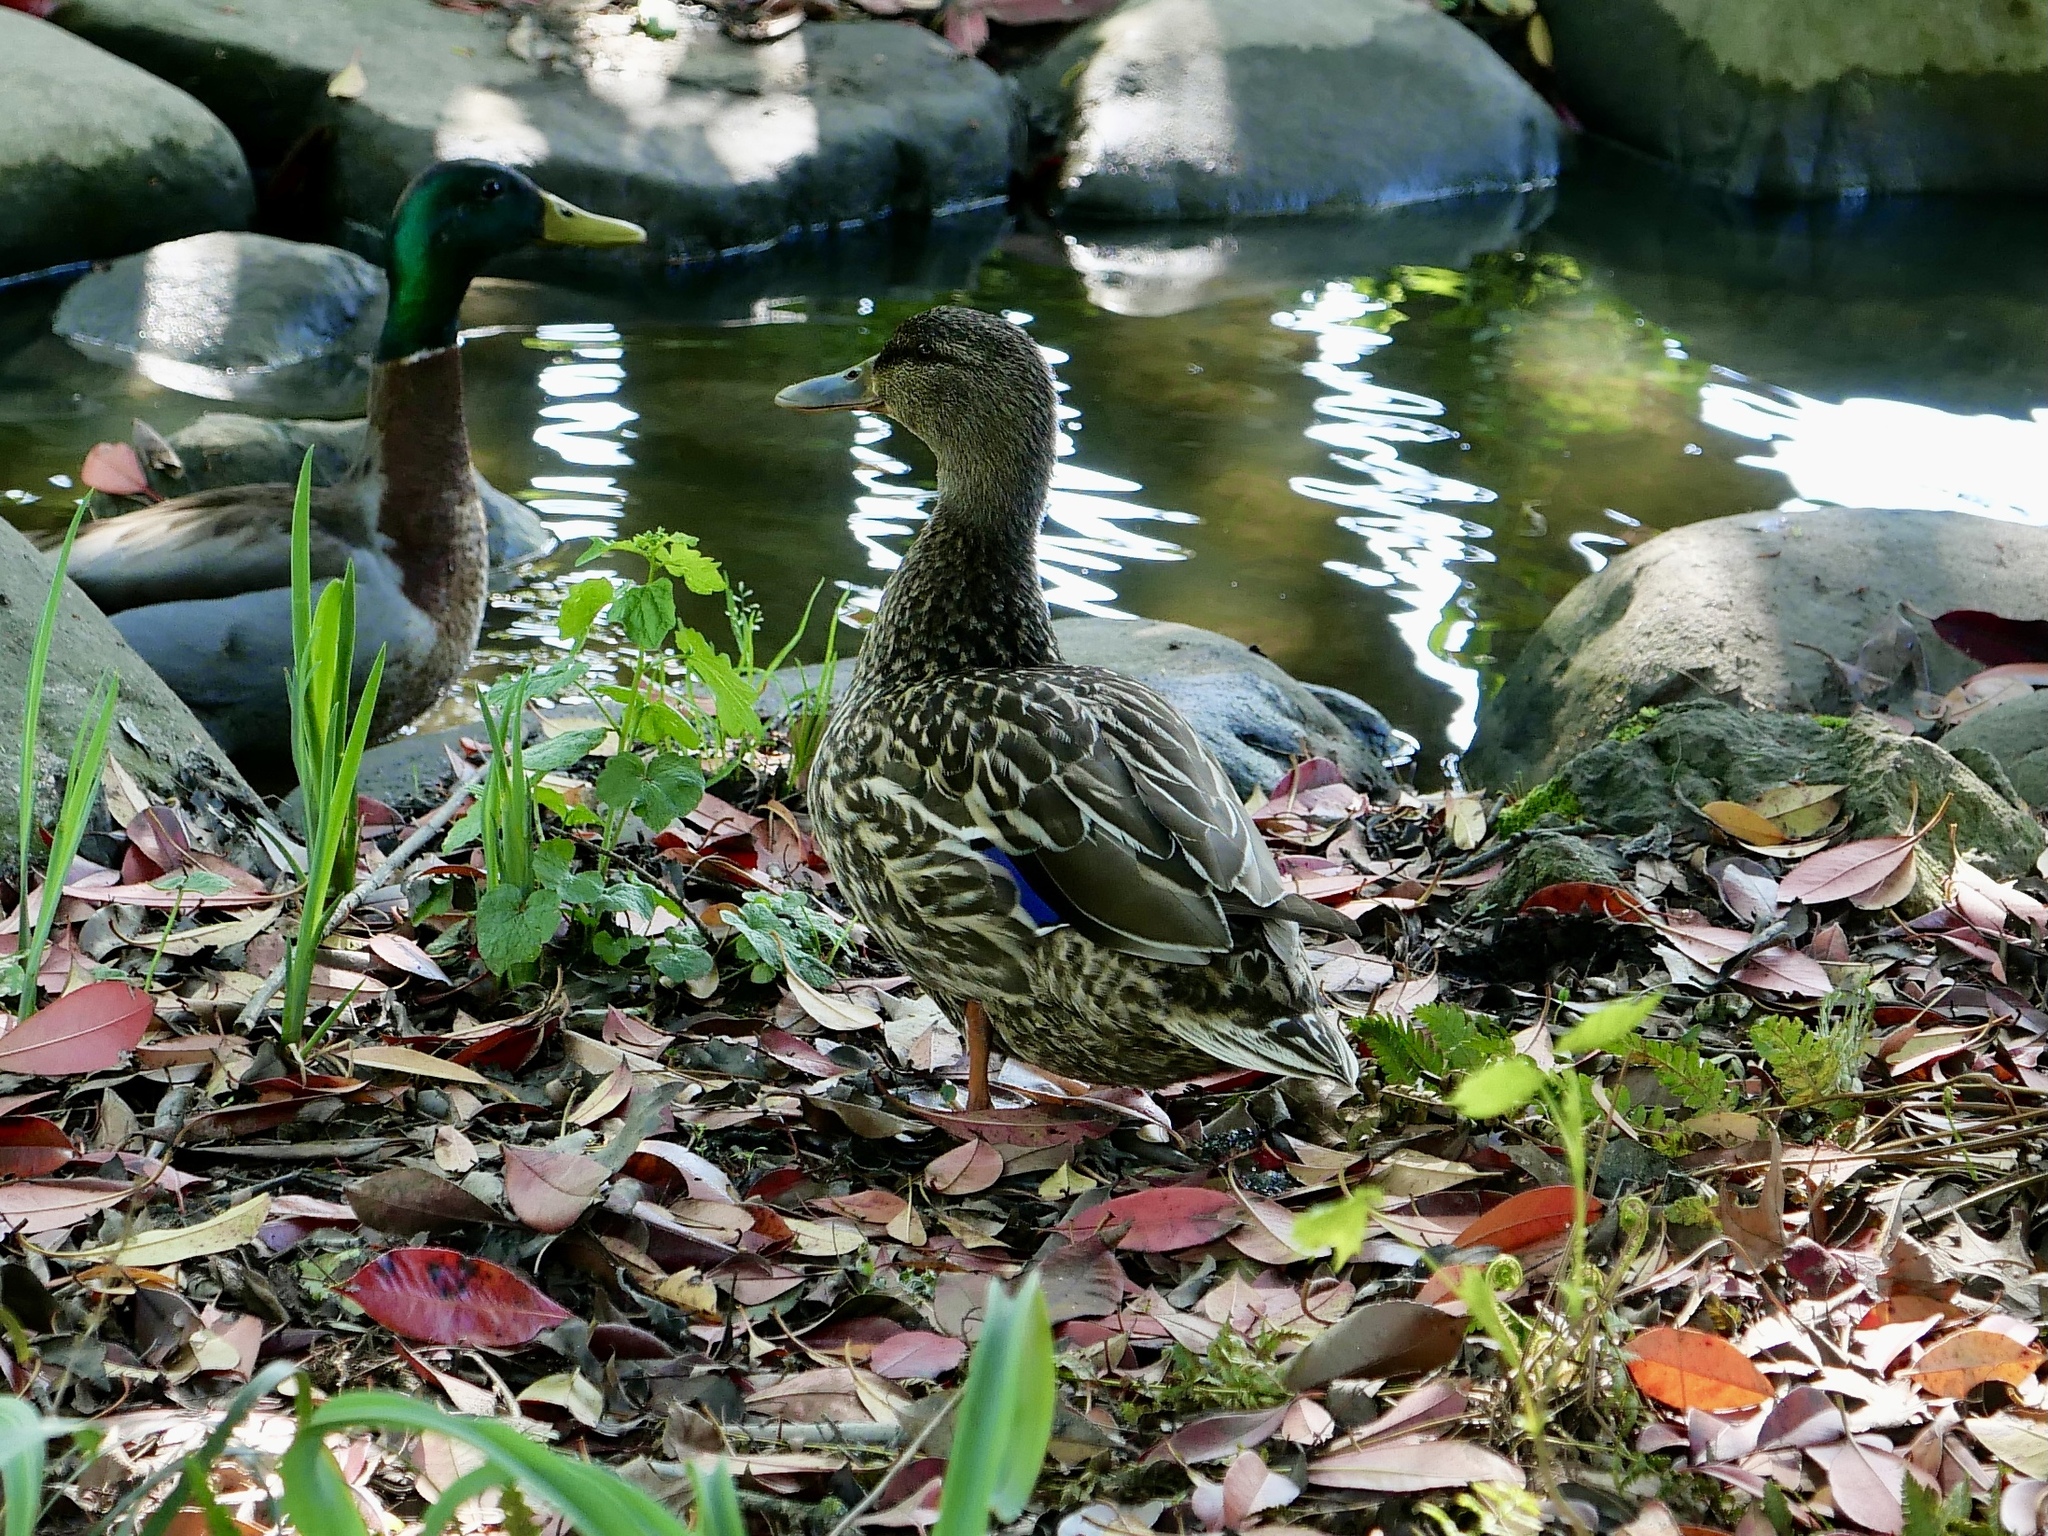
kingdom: Animalia
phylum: Chordata
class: Aves
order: Anseriformes
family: Anatidae
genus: Anas
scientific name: Anas platyrhynchos
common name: Mallard
